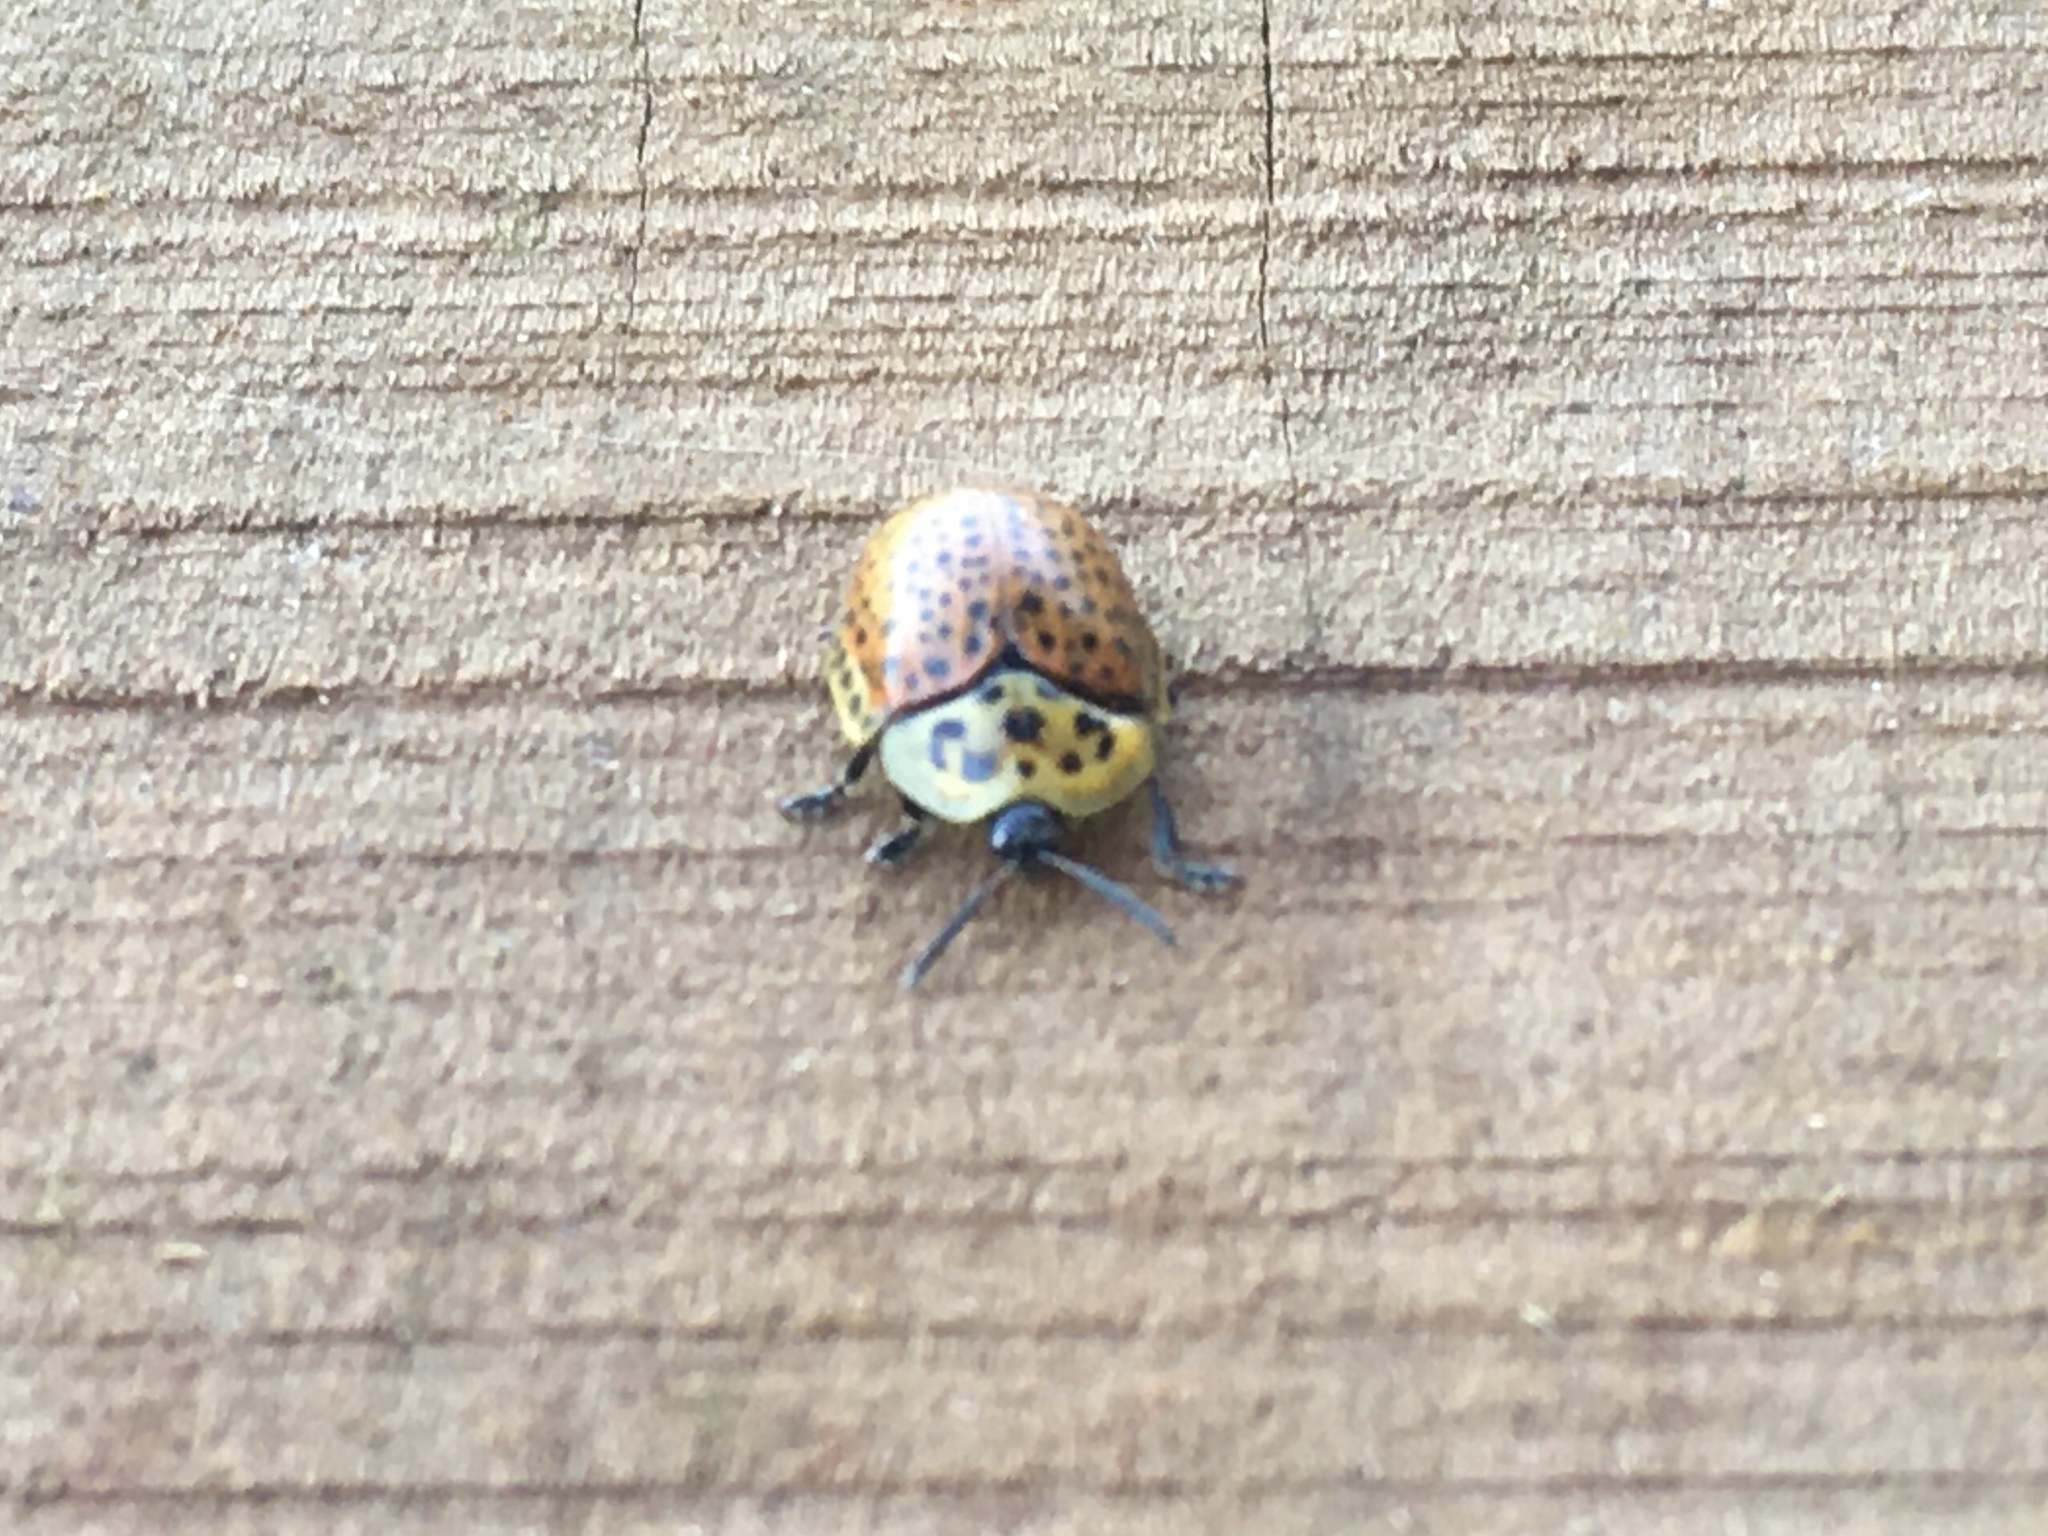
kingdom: Animalia
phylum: Arthropoda
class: Insecta
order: Coleoptera
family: Chrysomelidae
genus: Anacassis
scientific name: Anacassis cribrum
